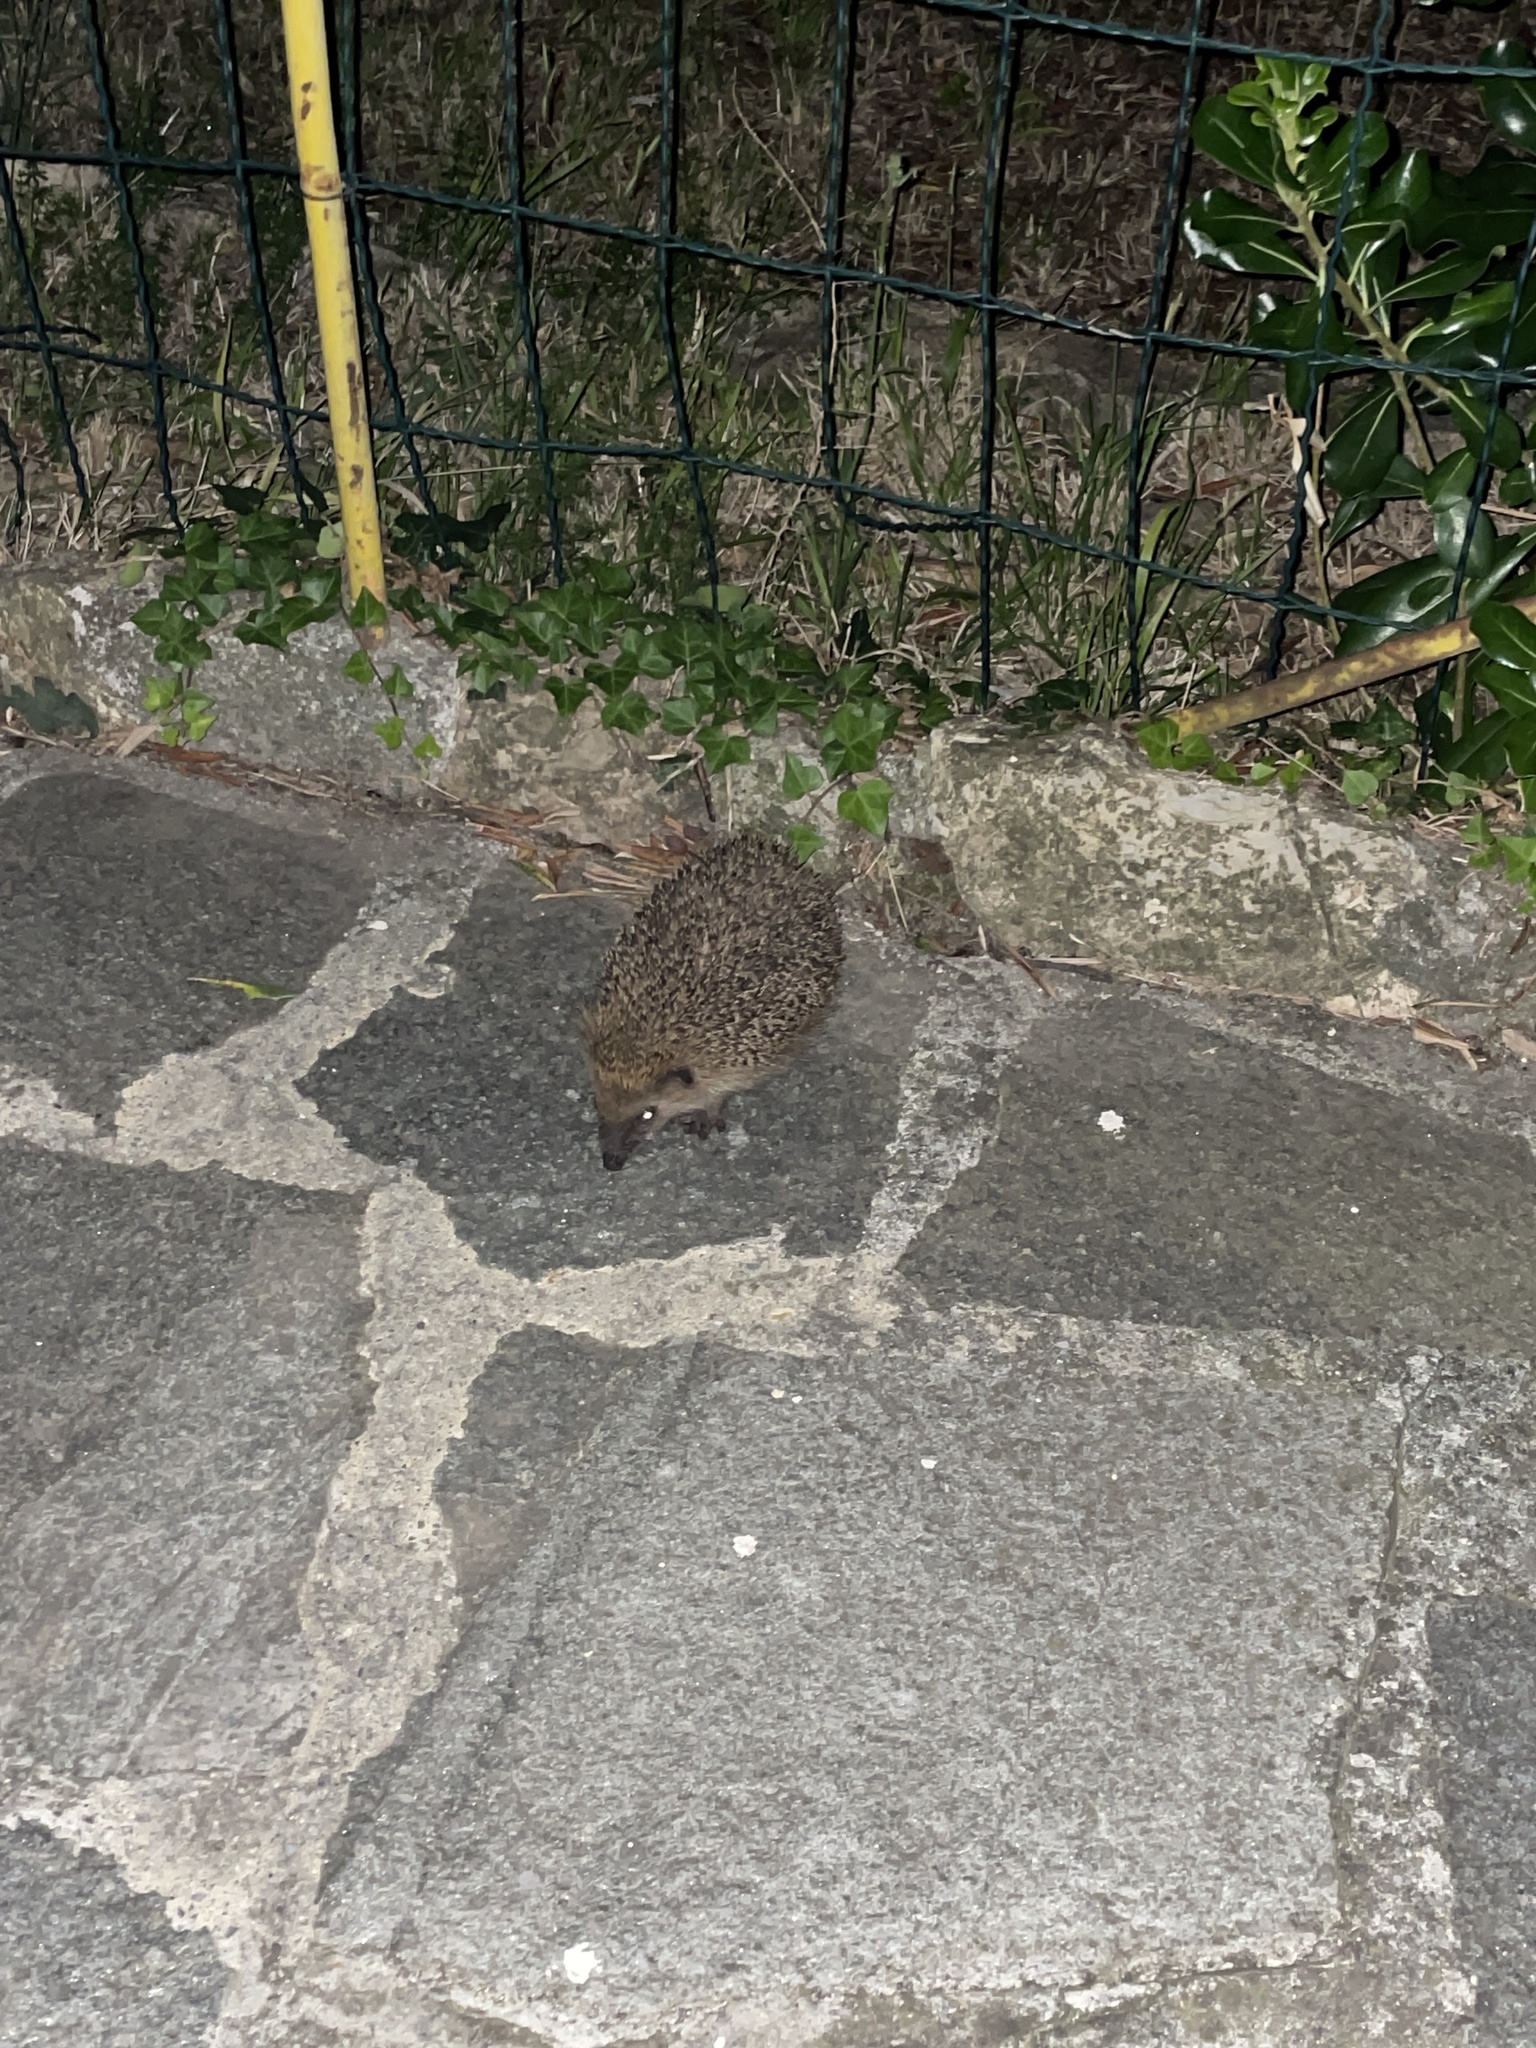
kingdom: Animalia
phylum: Chordata
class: Mammalia
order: Erinaceomorpha
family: Erinaceidae
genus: Erinaceus
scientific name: Erinaceus europaeus
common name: West european hedgehog
